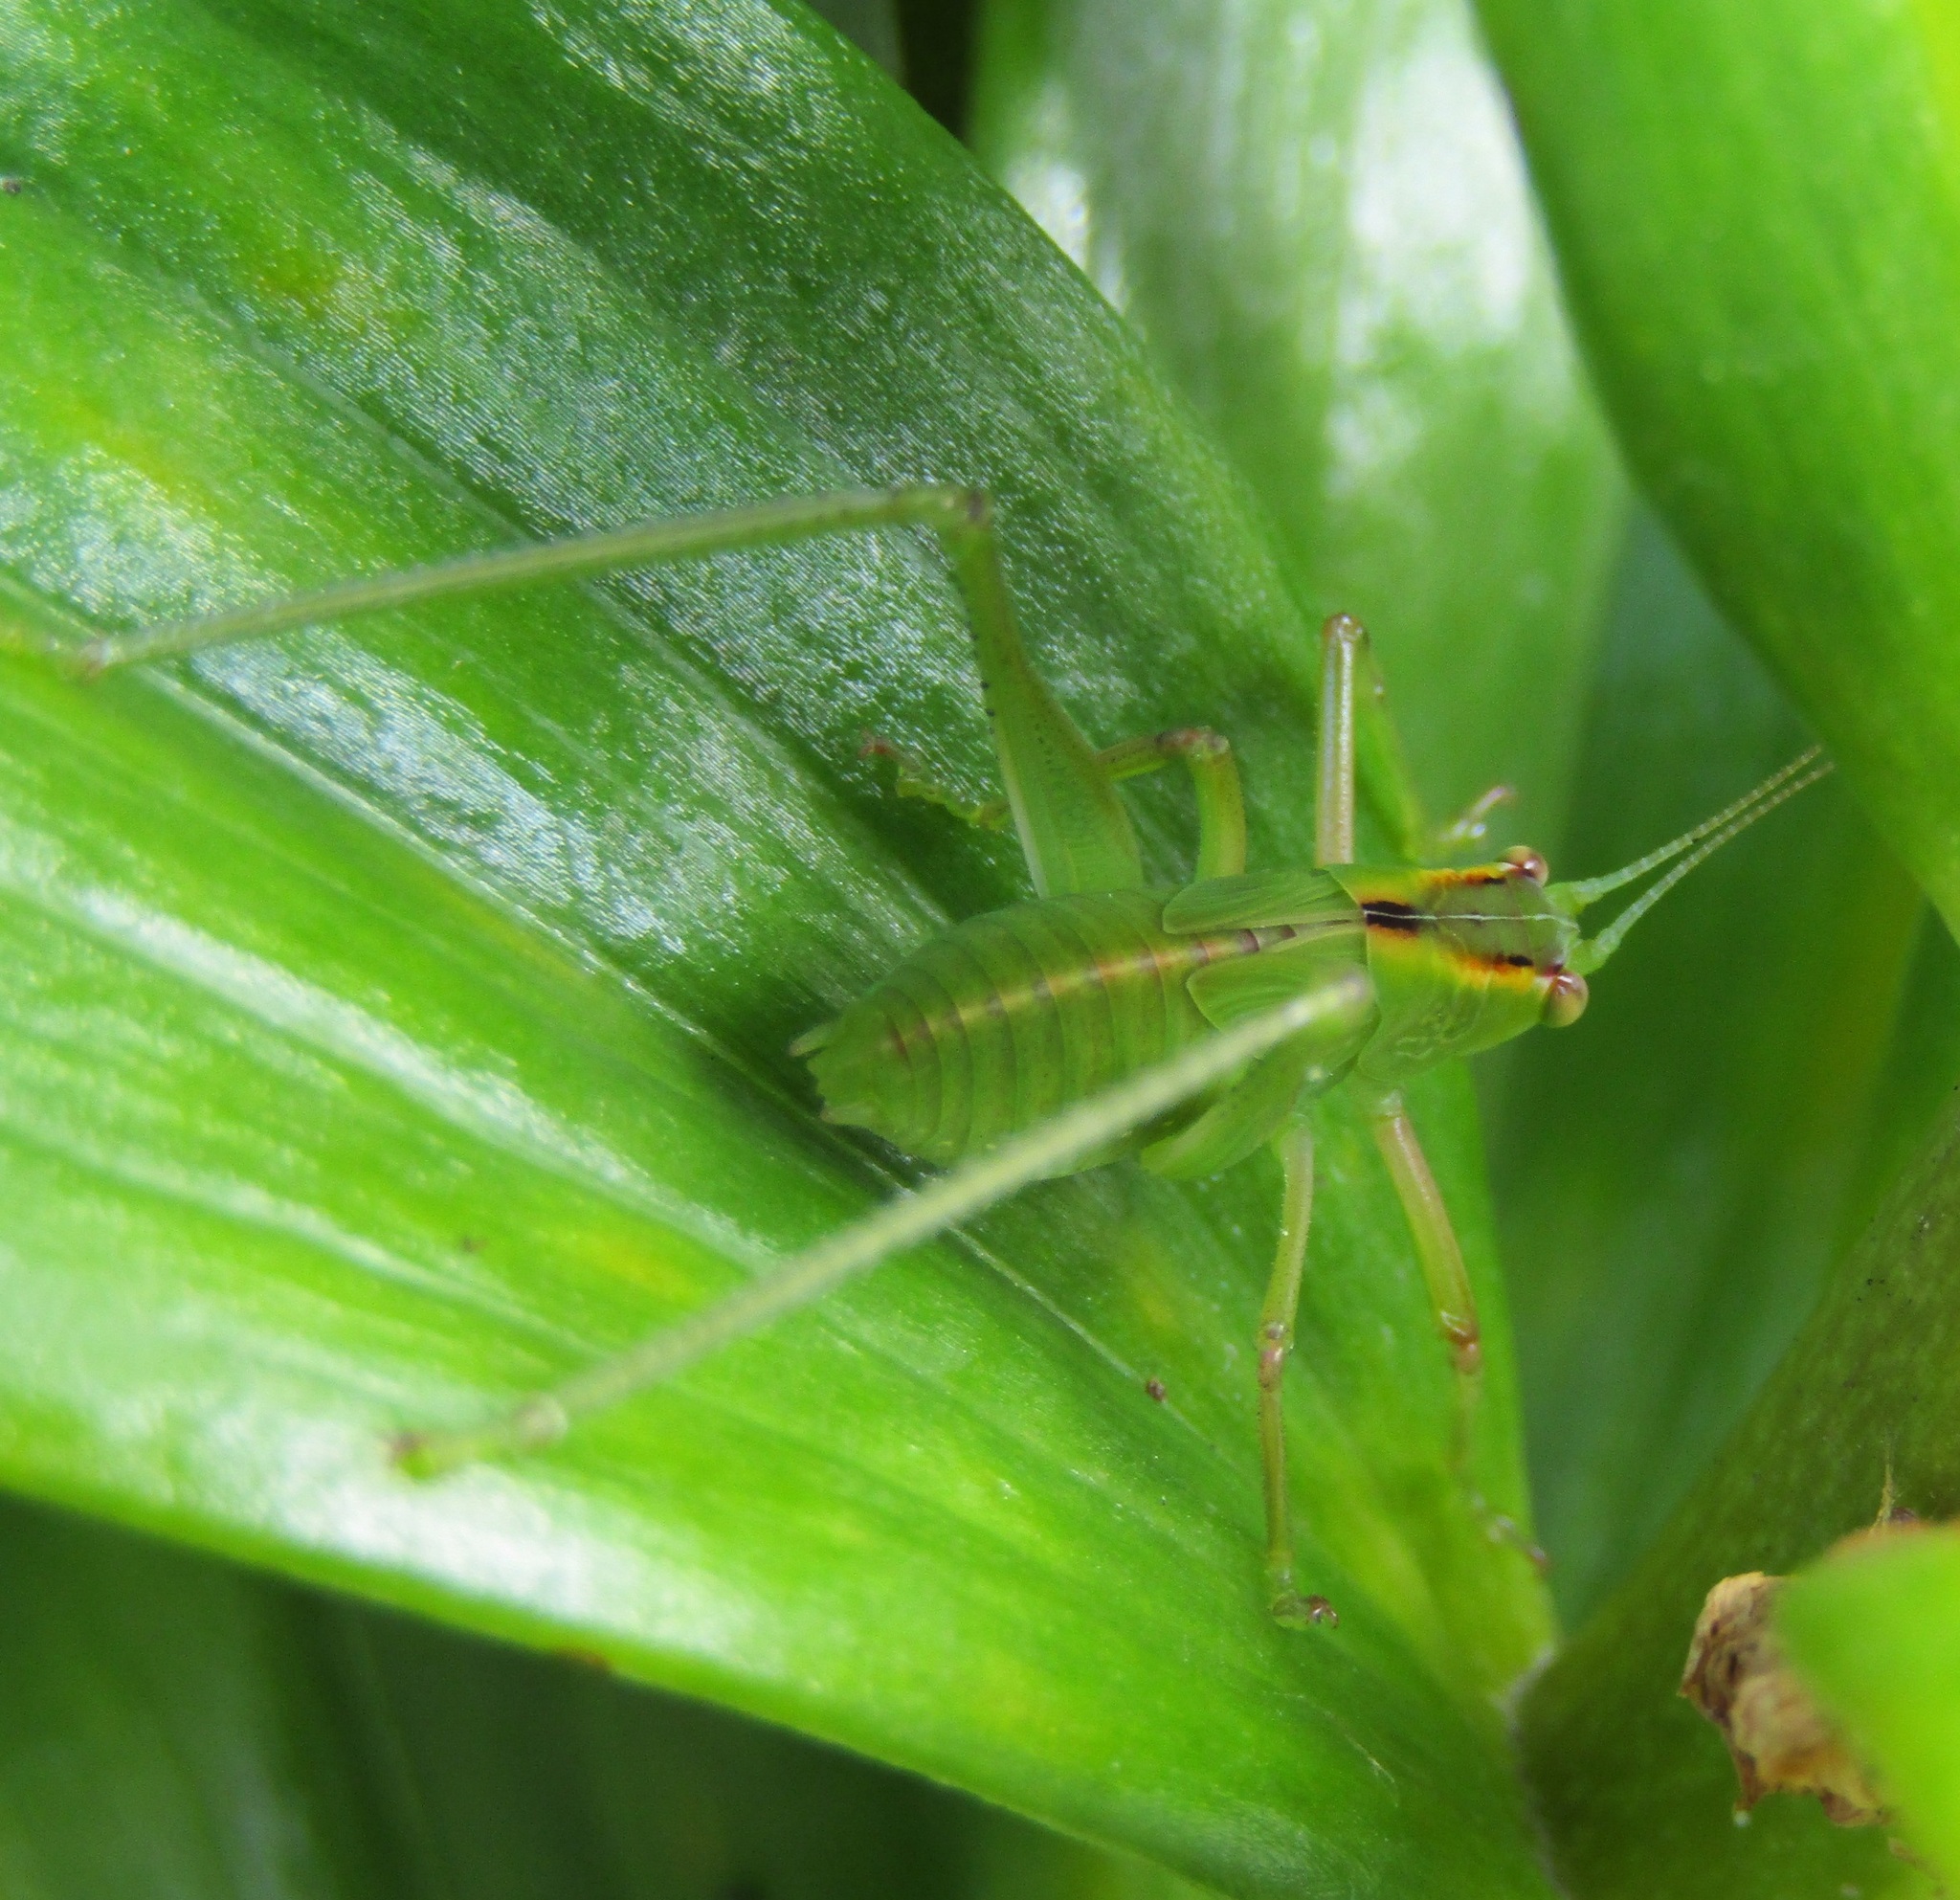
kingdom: Animalia
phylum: Arthropoda
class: Insecta
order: Orthoptera
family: Tettigoniidae
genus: Caedicia
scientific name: Caedicia simplex
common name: Common garden katydid
